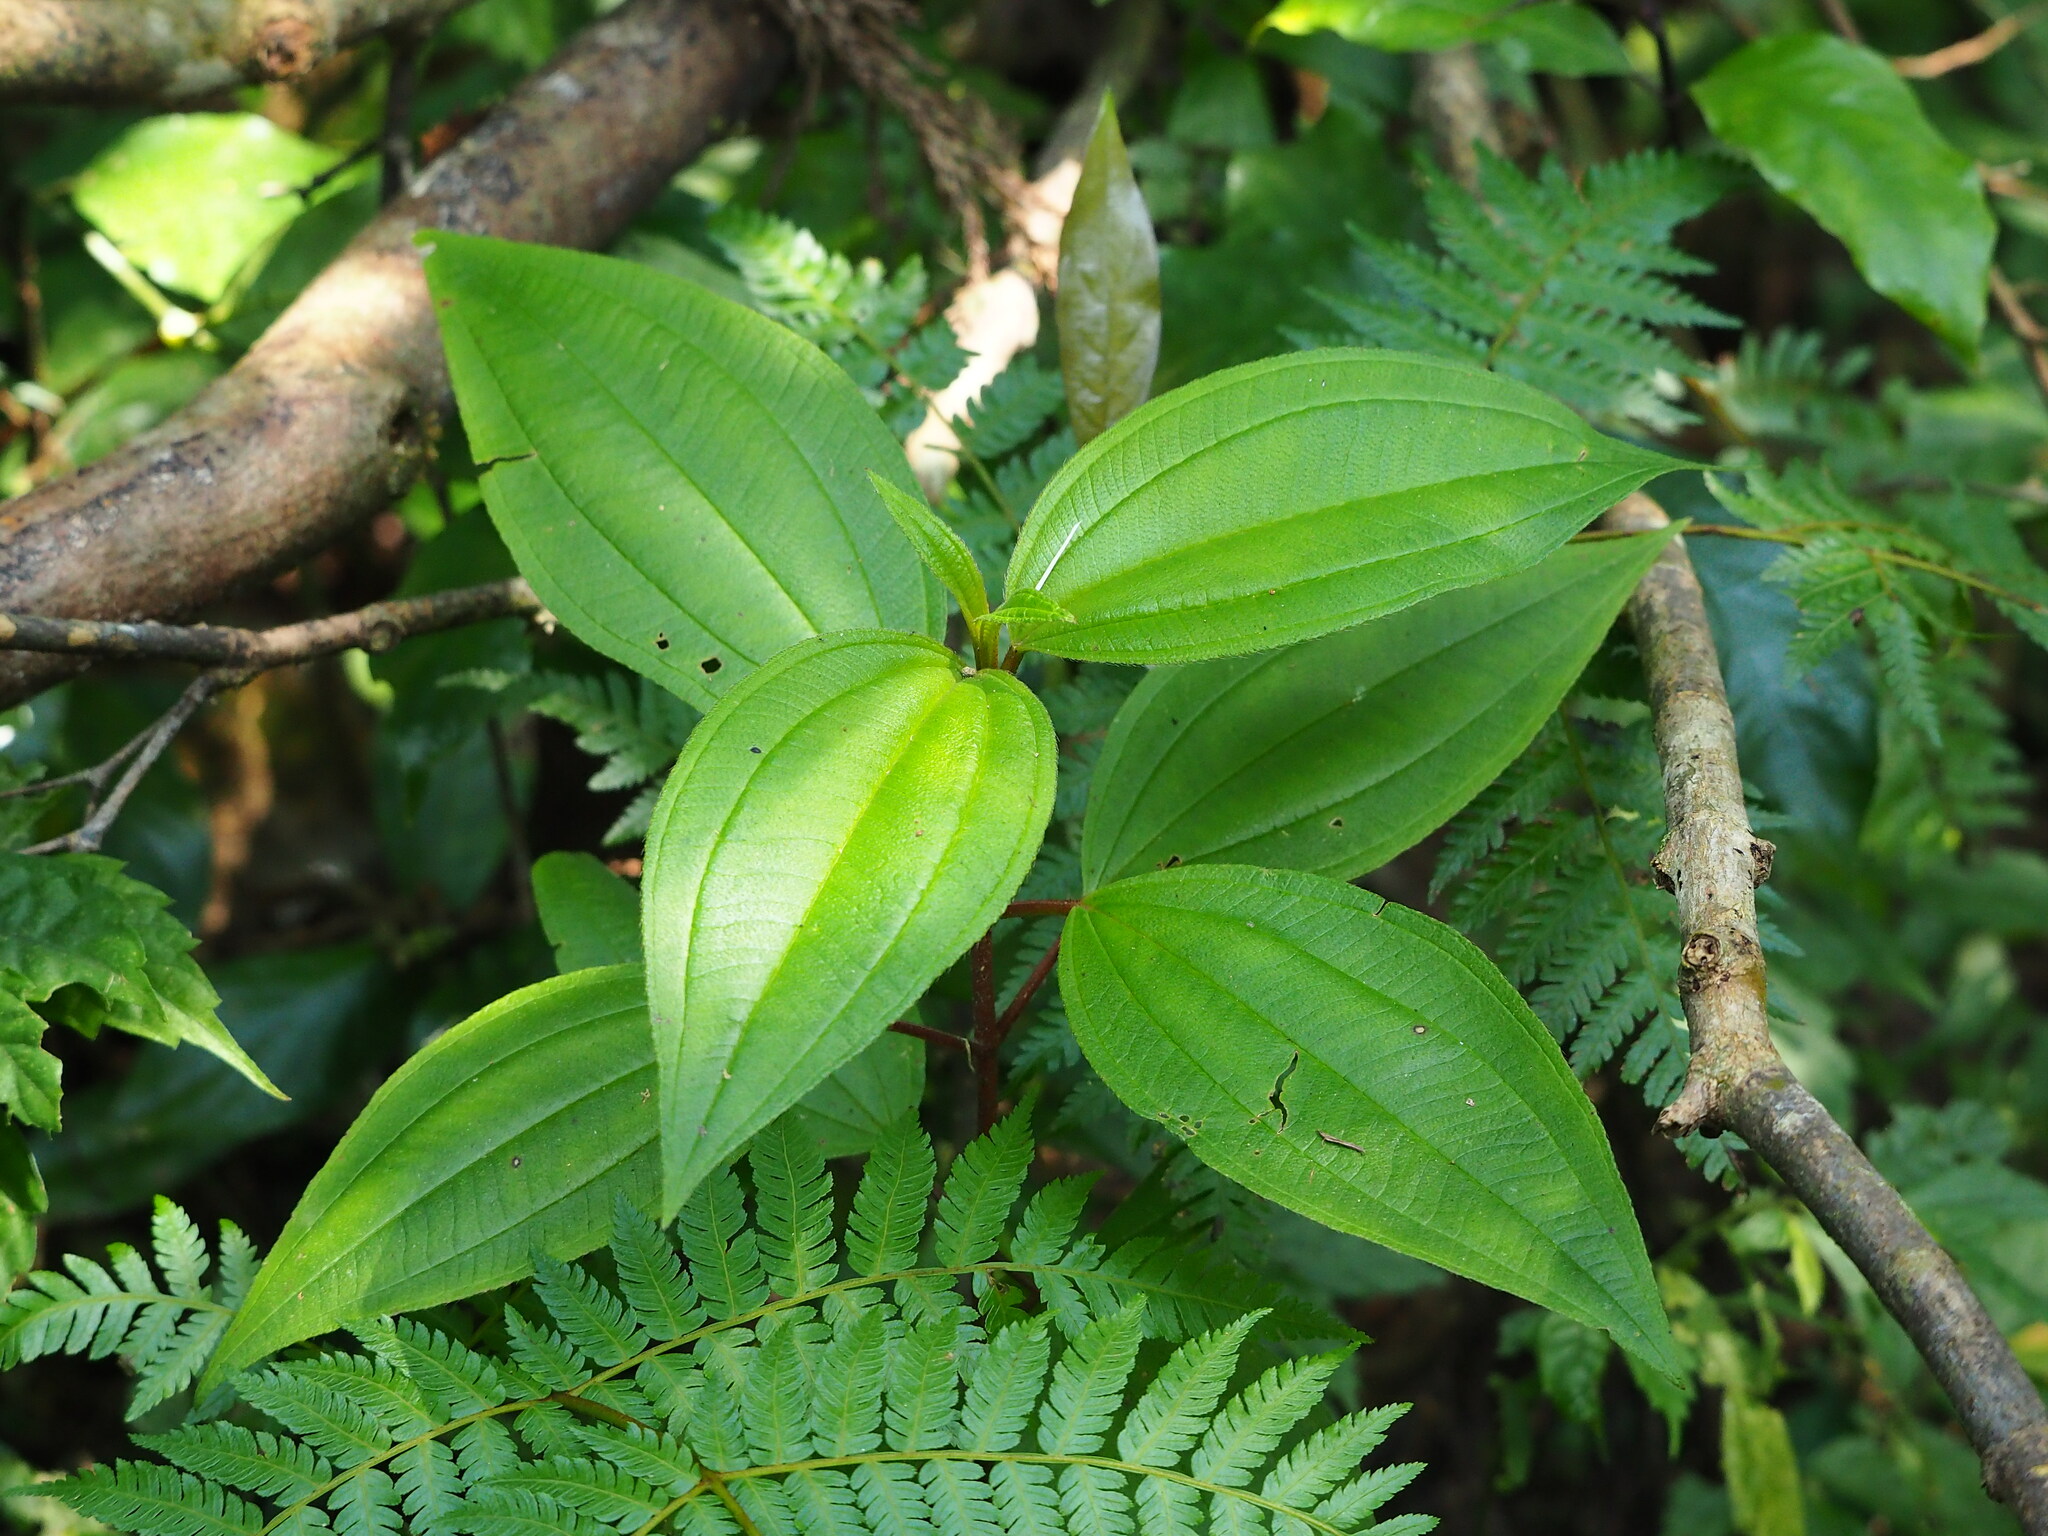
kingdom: Plantae
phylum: Tracheophyta
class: Magnoliopsida
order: Myrtales
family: Melastomataceae
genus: Melastoma
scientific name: Melastoma malabathricum
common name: Indian-rhododendron
